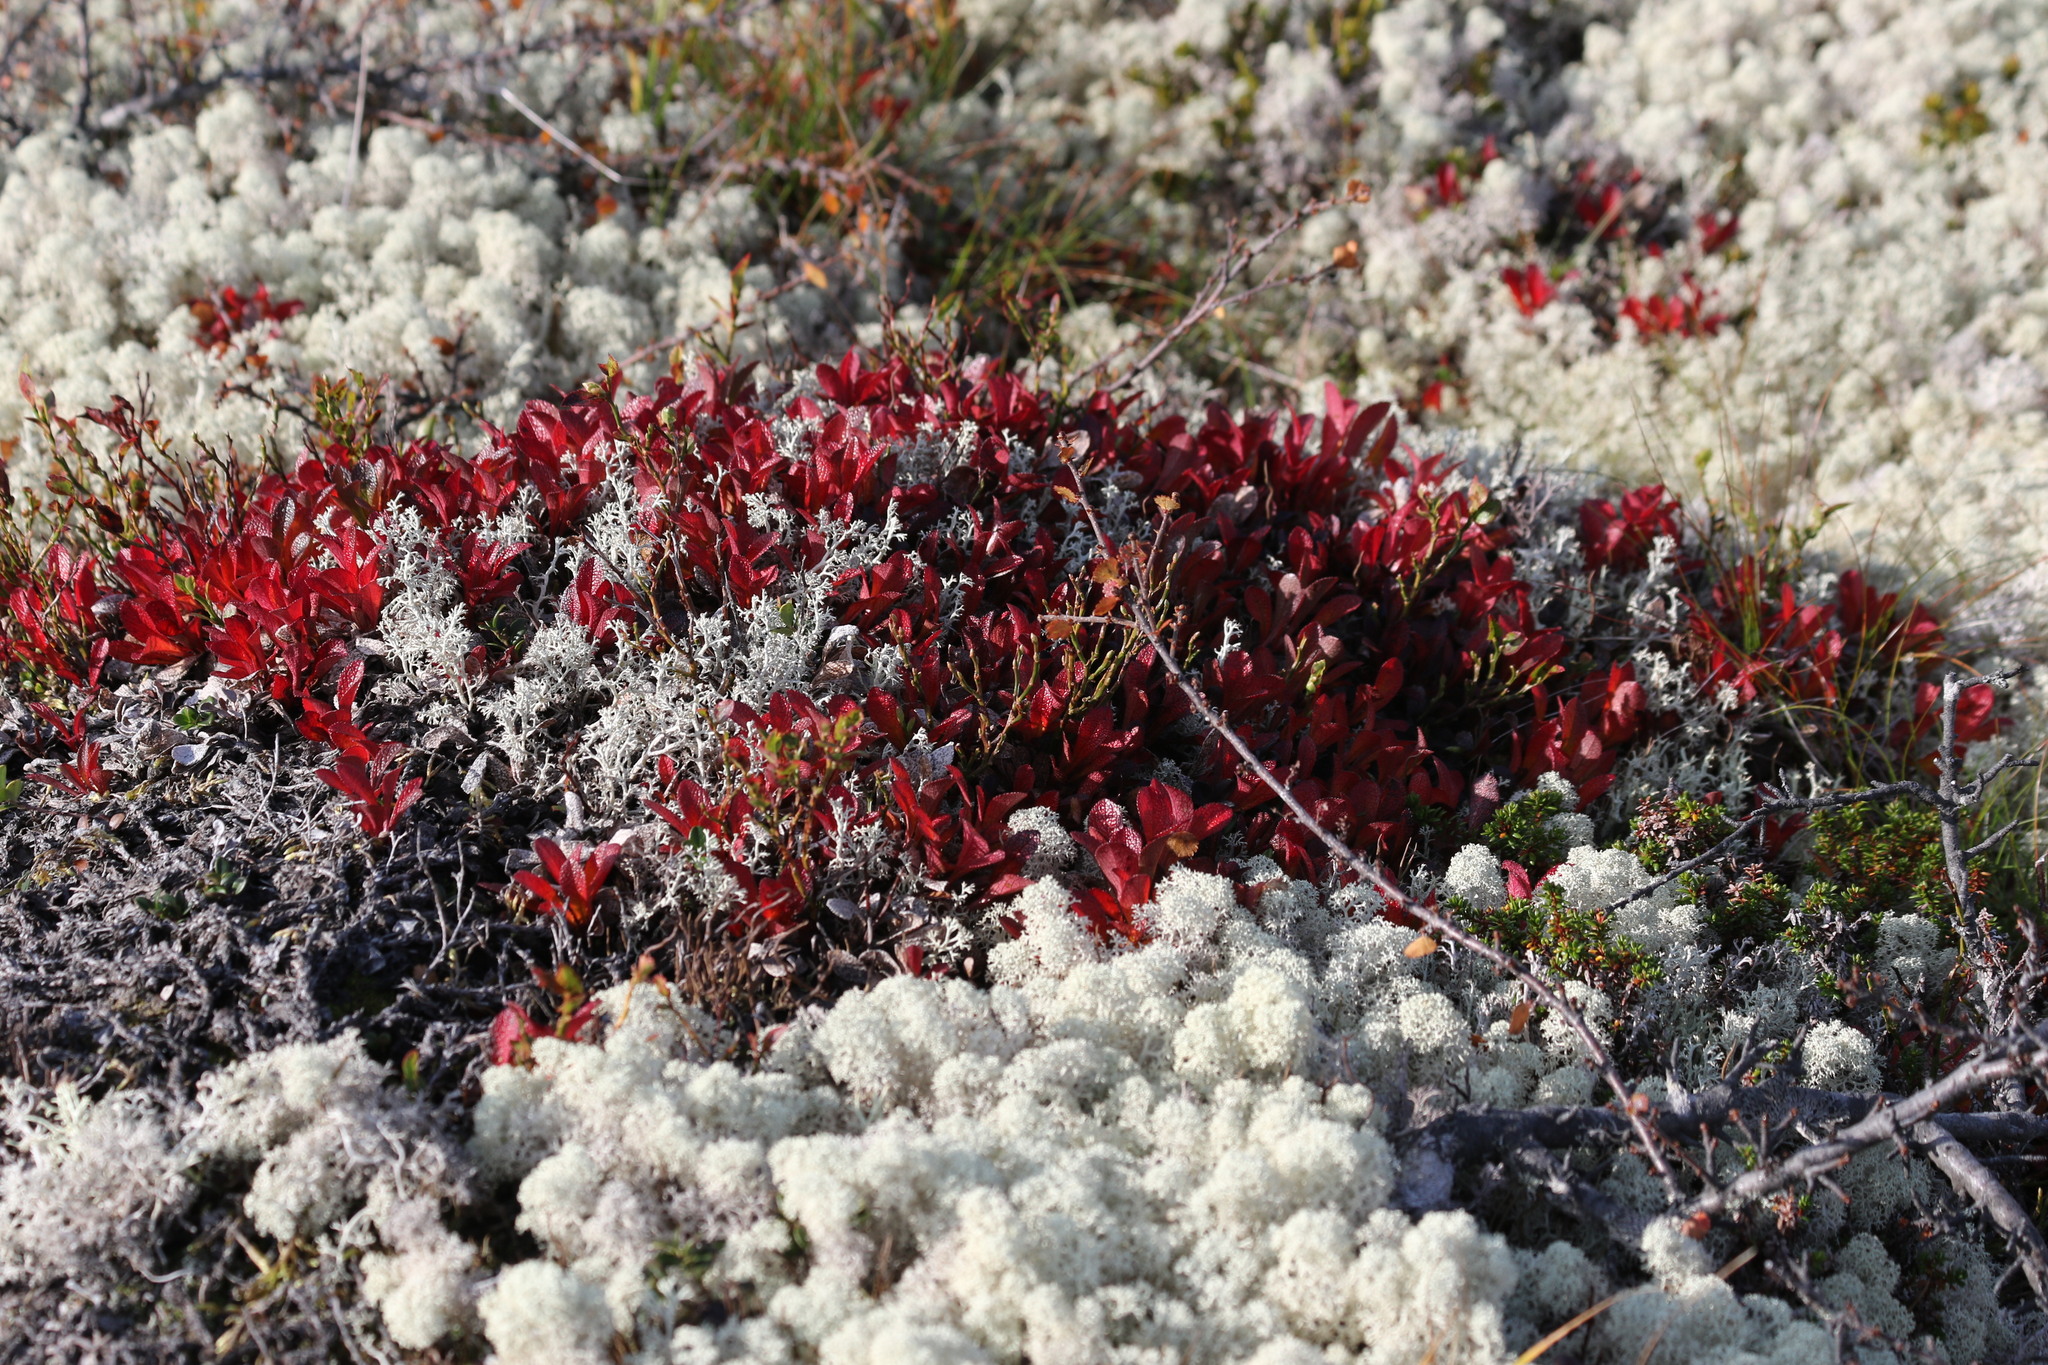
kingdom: Plantae
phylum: Tracheophyta
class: Magnoliopsida
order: Ericales
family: Ericaceae
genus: Arctostaphylos
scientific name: Arctostaphylos alpinus
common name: Alpine bearberry
